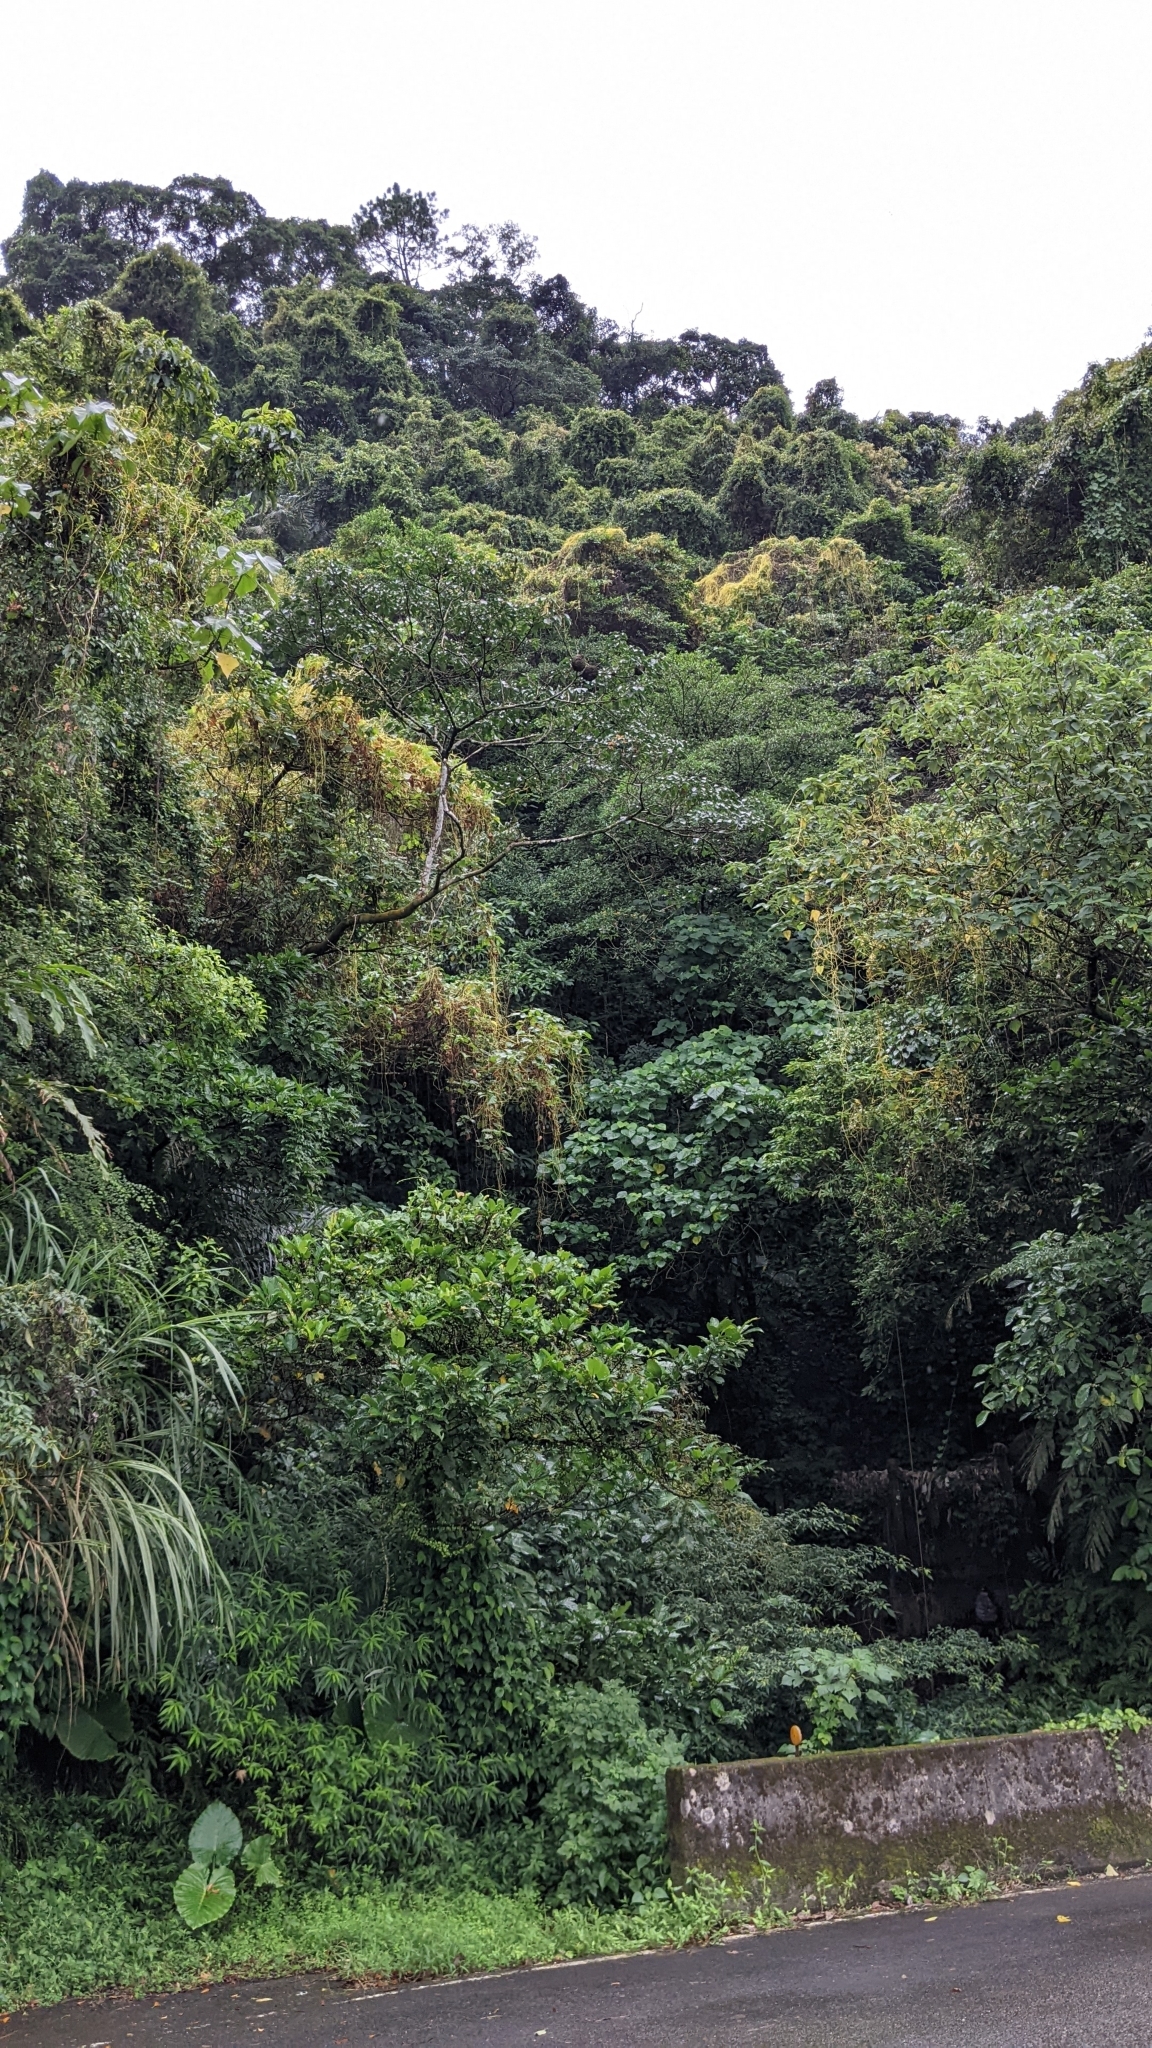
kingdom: Plantae
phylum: Tracheophyta
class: Magnoliopsida
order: Solanales
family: Convolvulaceae
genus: Cuscuta
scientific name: Cuscuta japonica
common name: Japanese dodder
